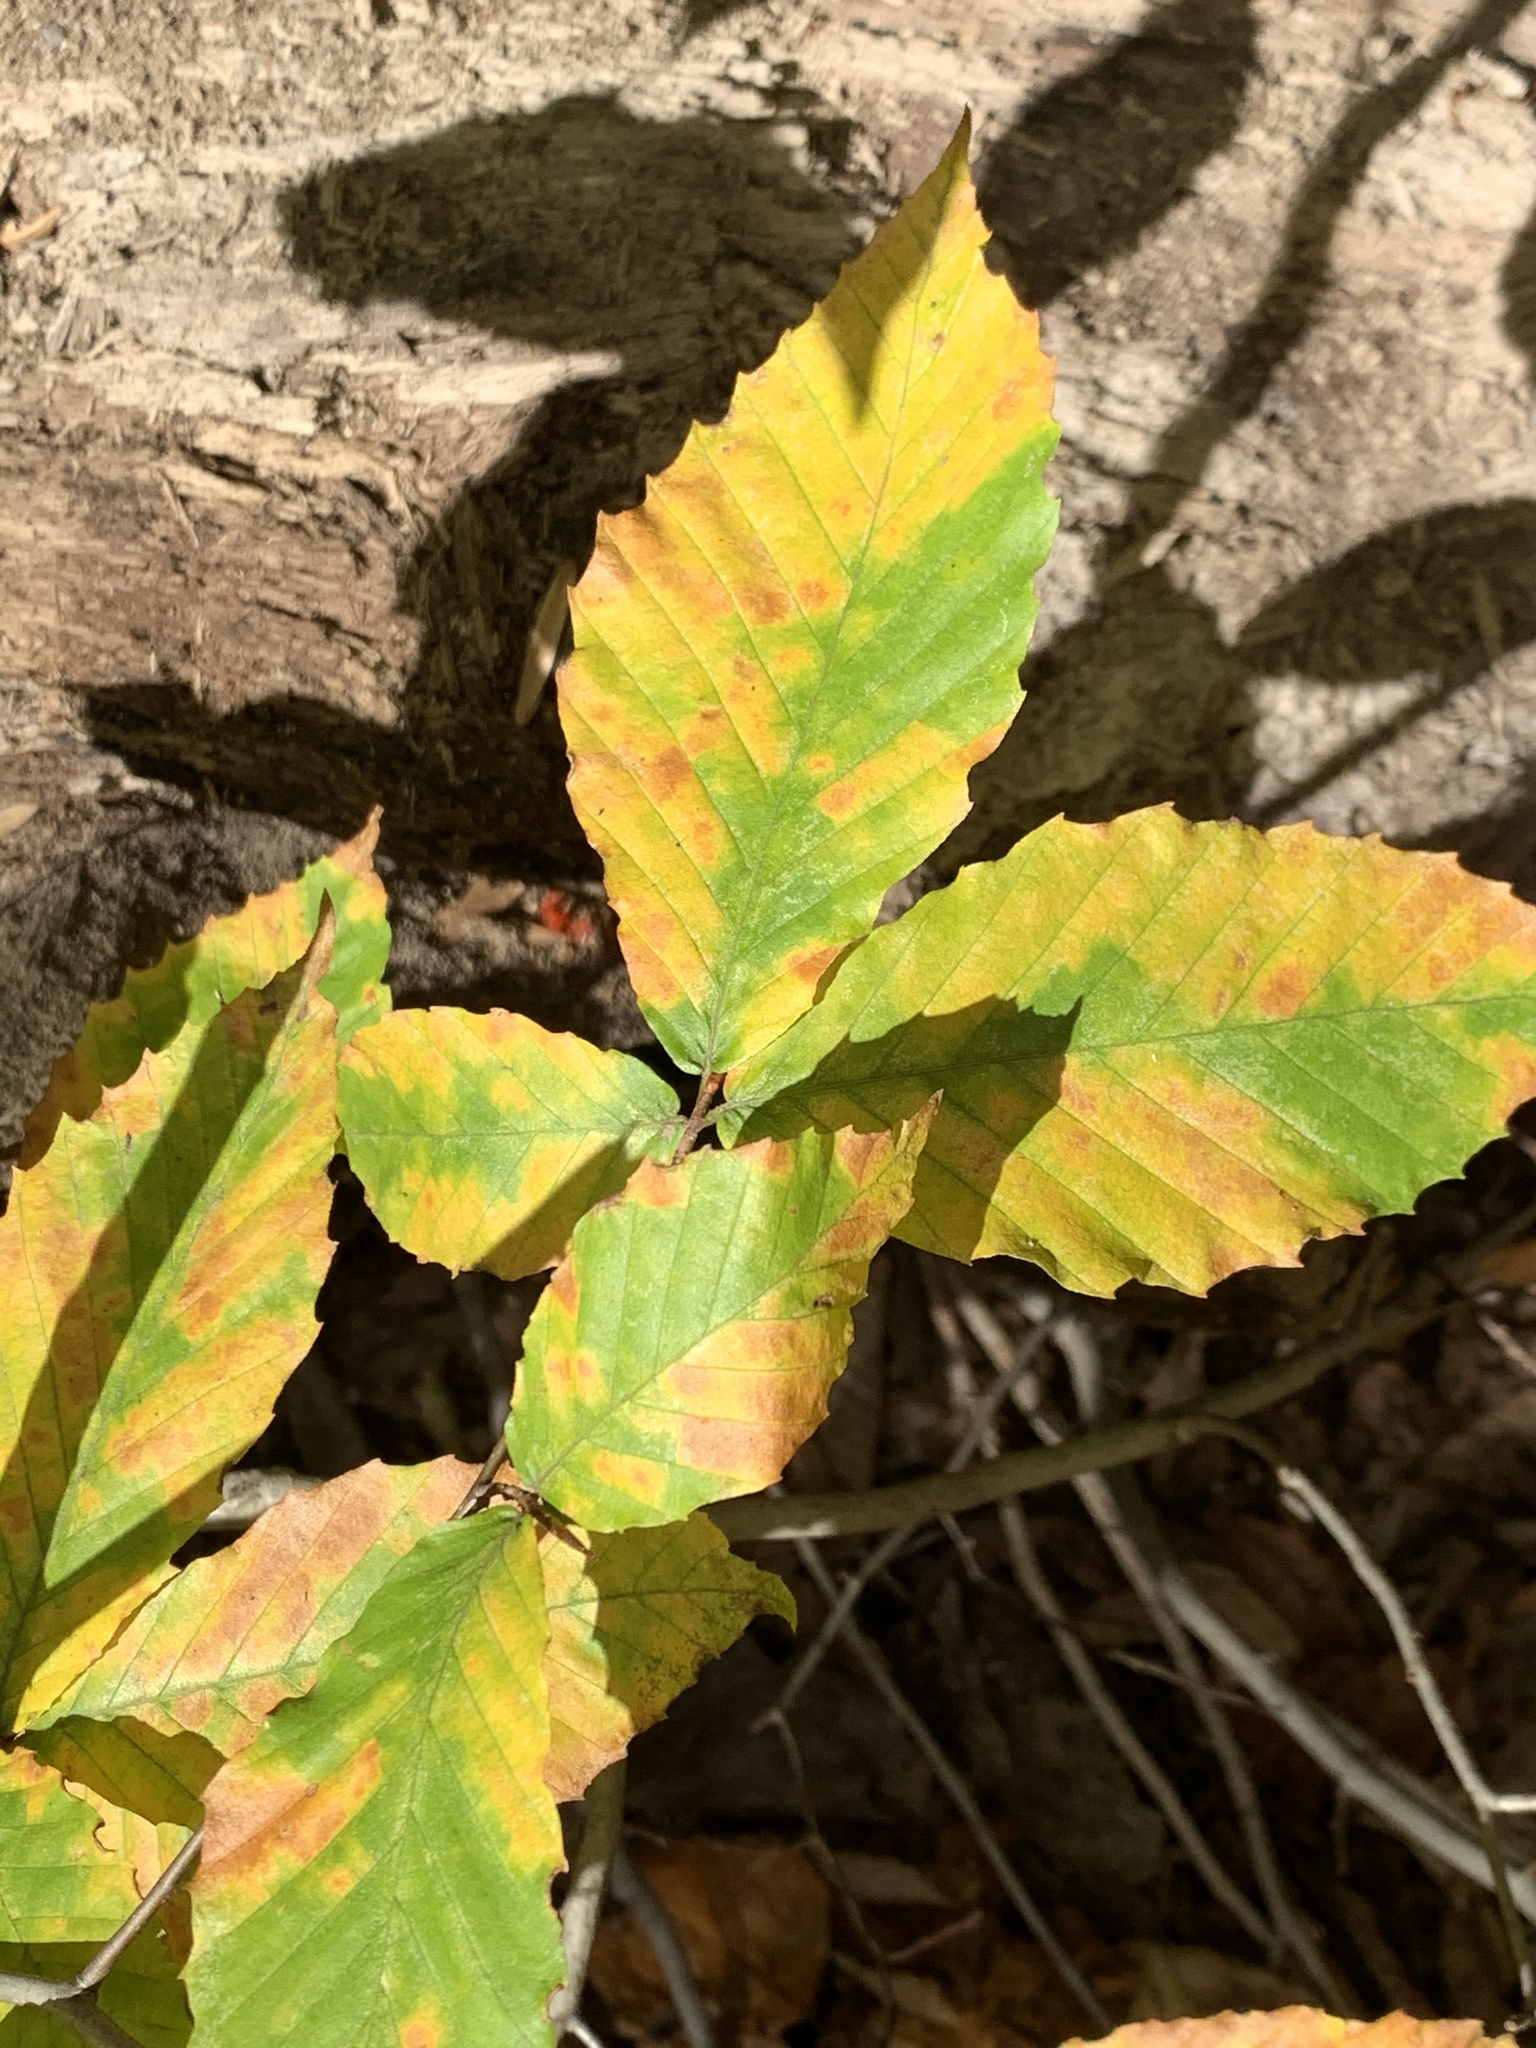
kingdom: Plantae
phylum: Tracheophyta
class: Magnoliopsida
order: Fagales
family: Fagaceae
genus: Fagus
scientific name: Fagus grandifolia
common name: American beech
